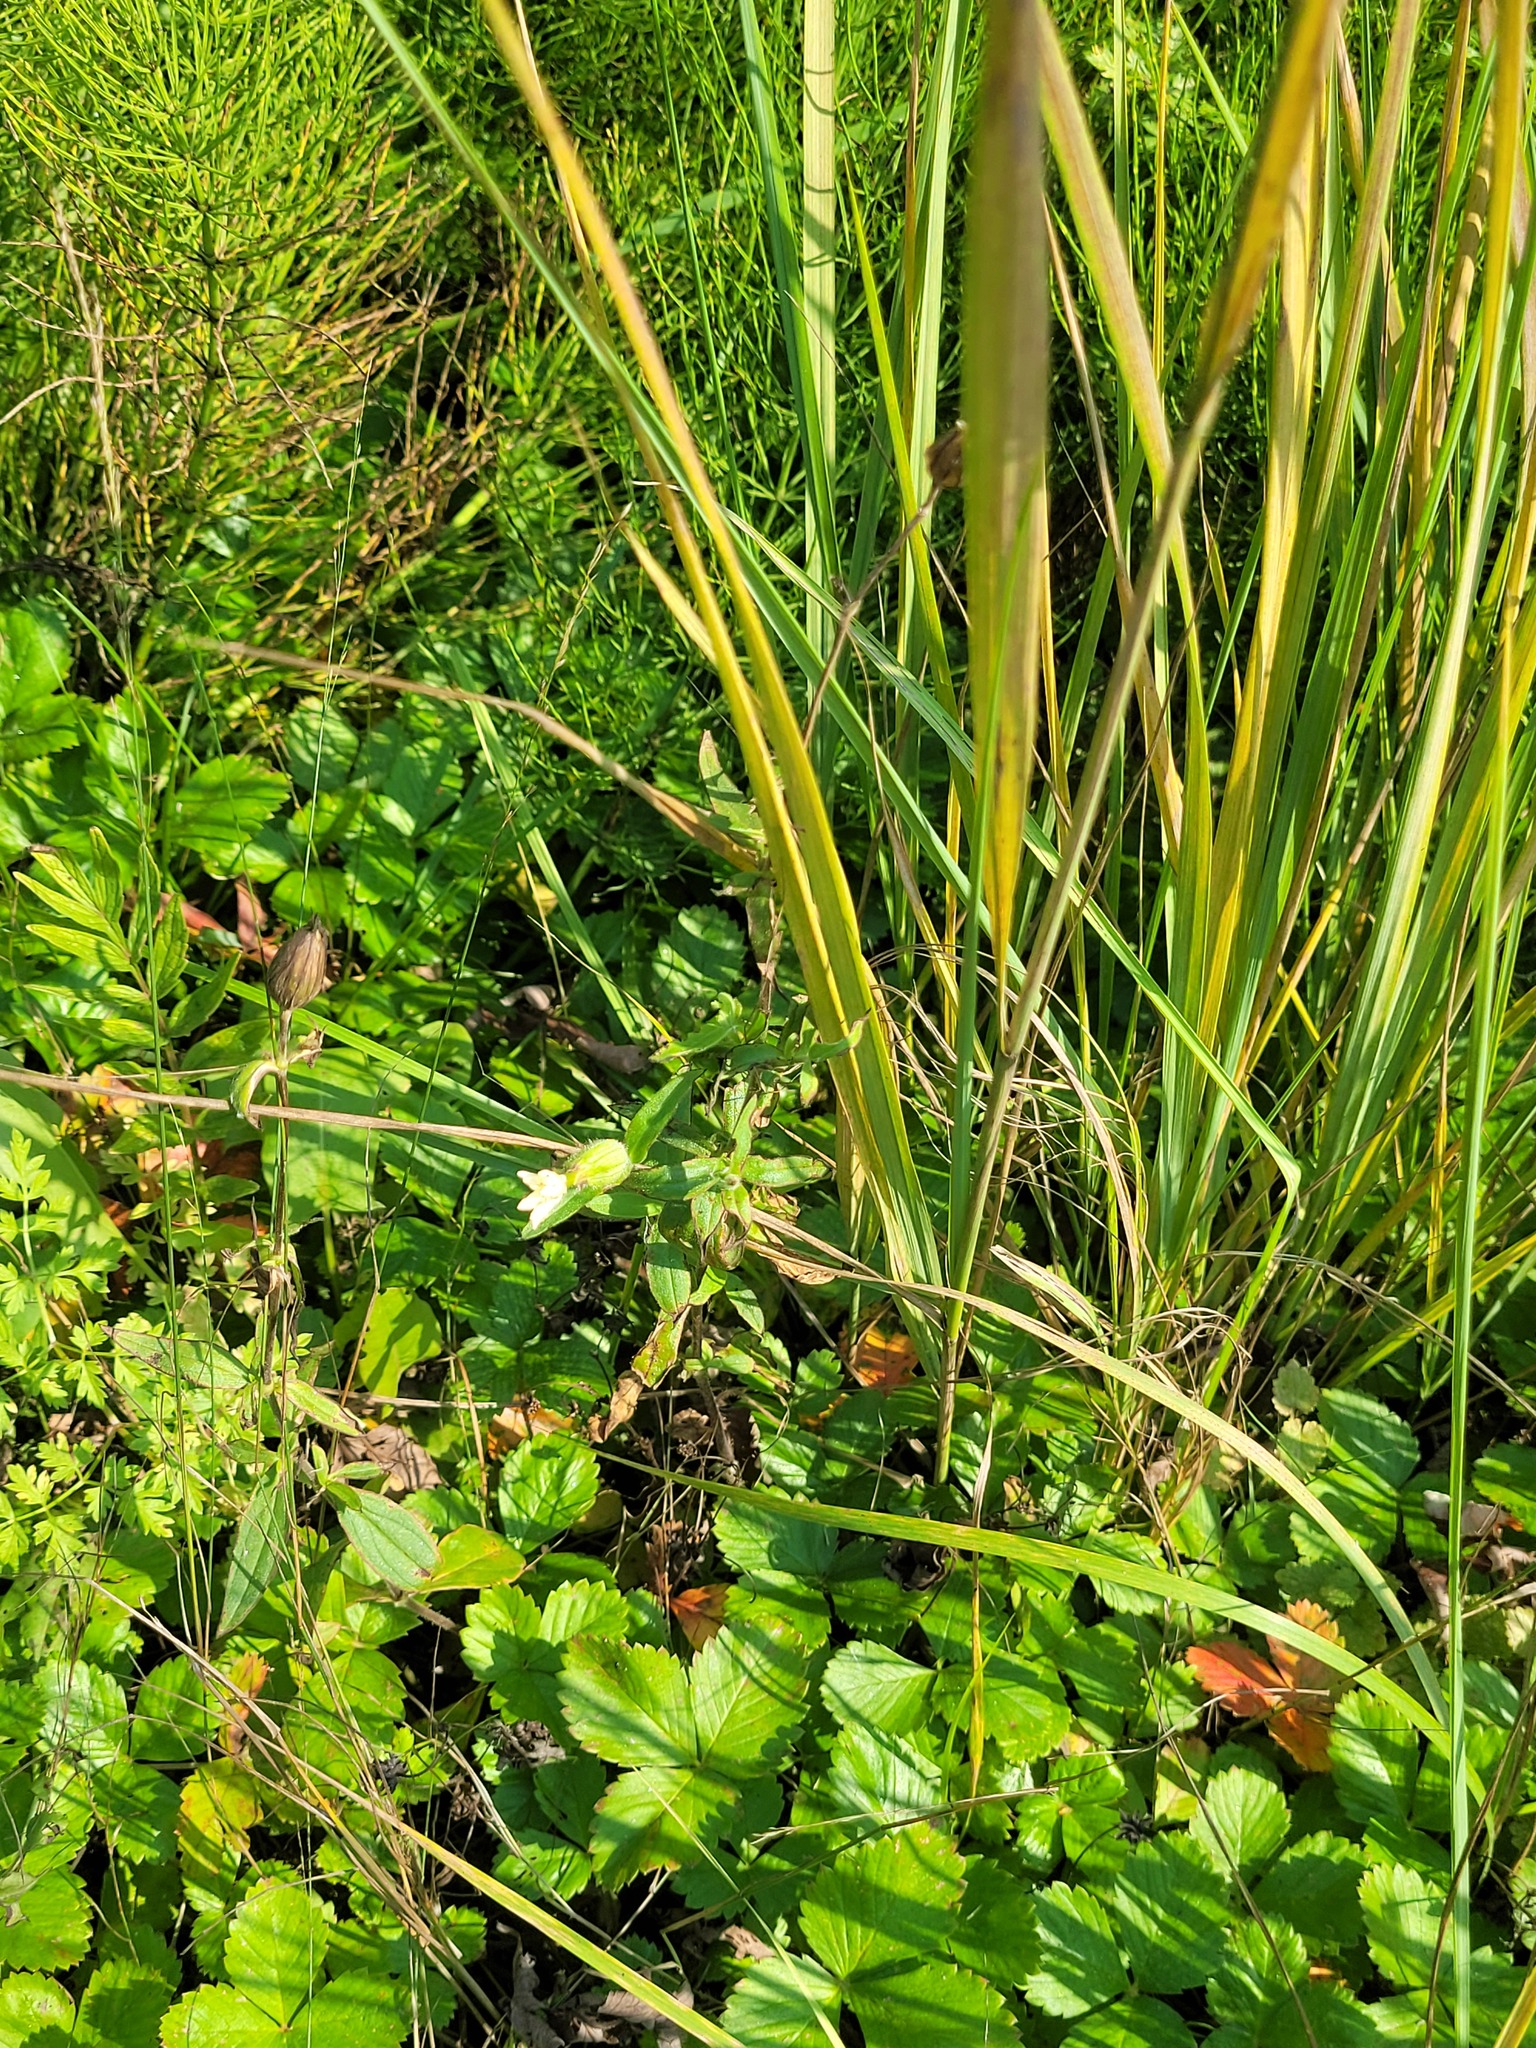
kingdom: Plantae
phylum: Tracheophyta
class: Magnoliopsida
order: Caryophyllales
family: Caryophyllaceae
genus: Silene
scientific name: Silene latifolia
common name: White campion
